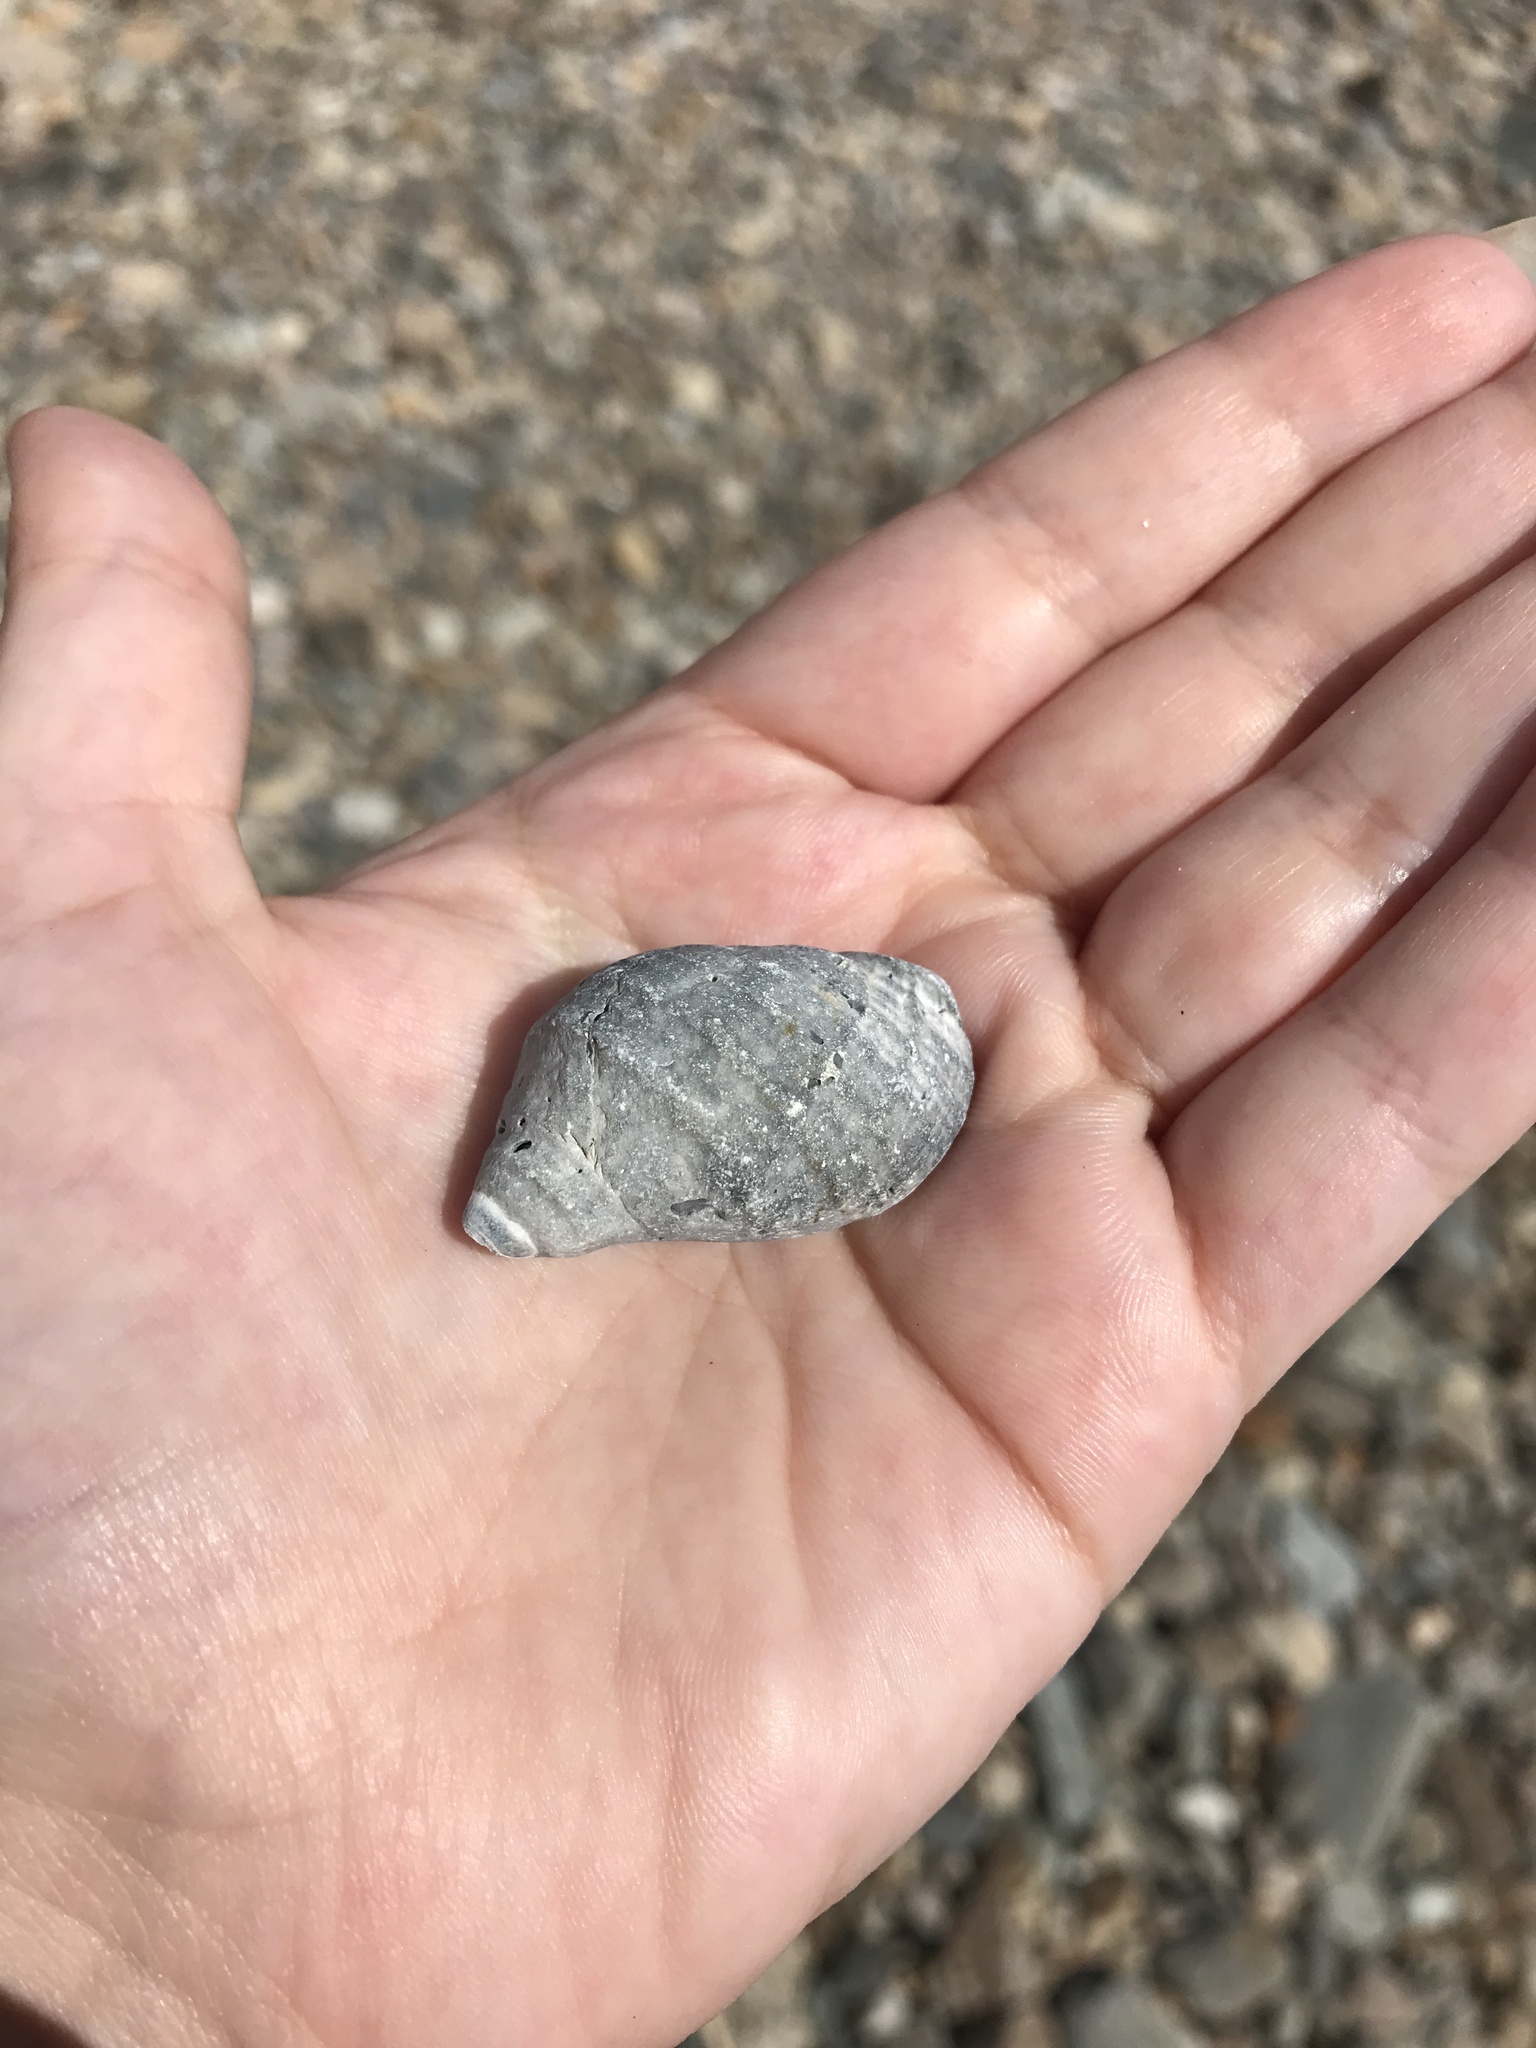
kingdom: Animalia
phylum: Mollusca
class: Gastropoda
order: Neogastropoda
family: Muricidae
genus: Nucella
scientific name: Nucella lapillus
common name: Dog whelk
